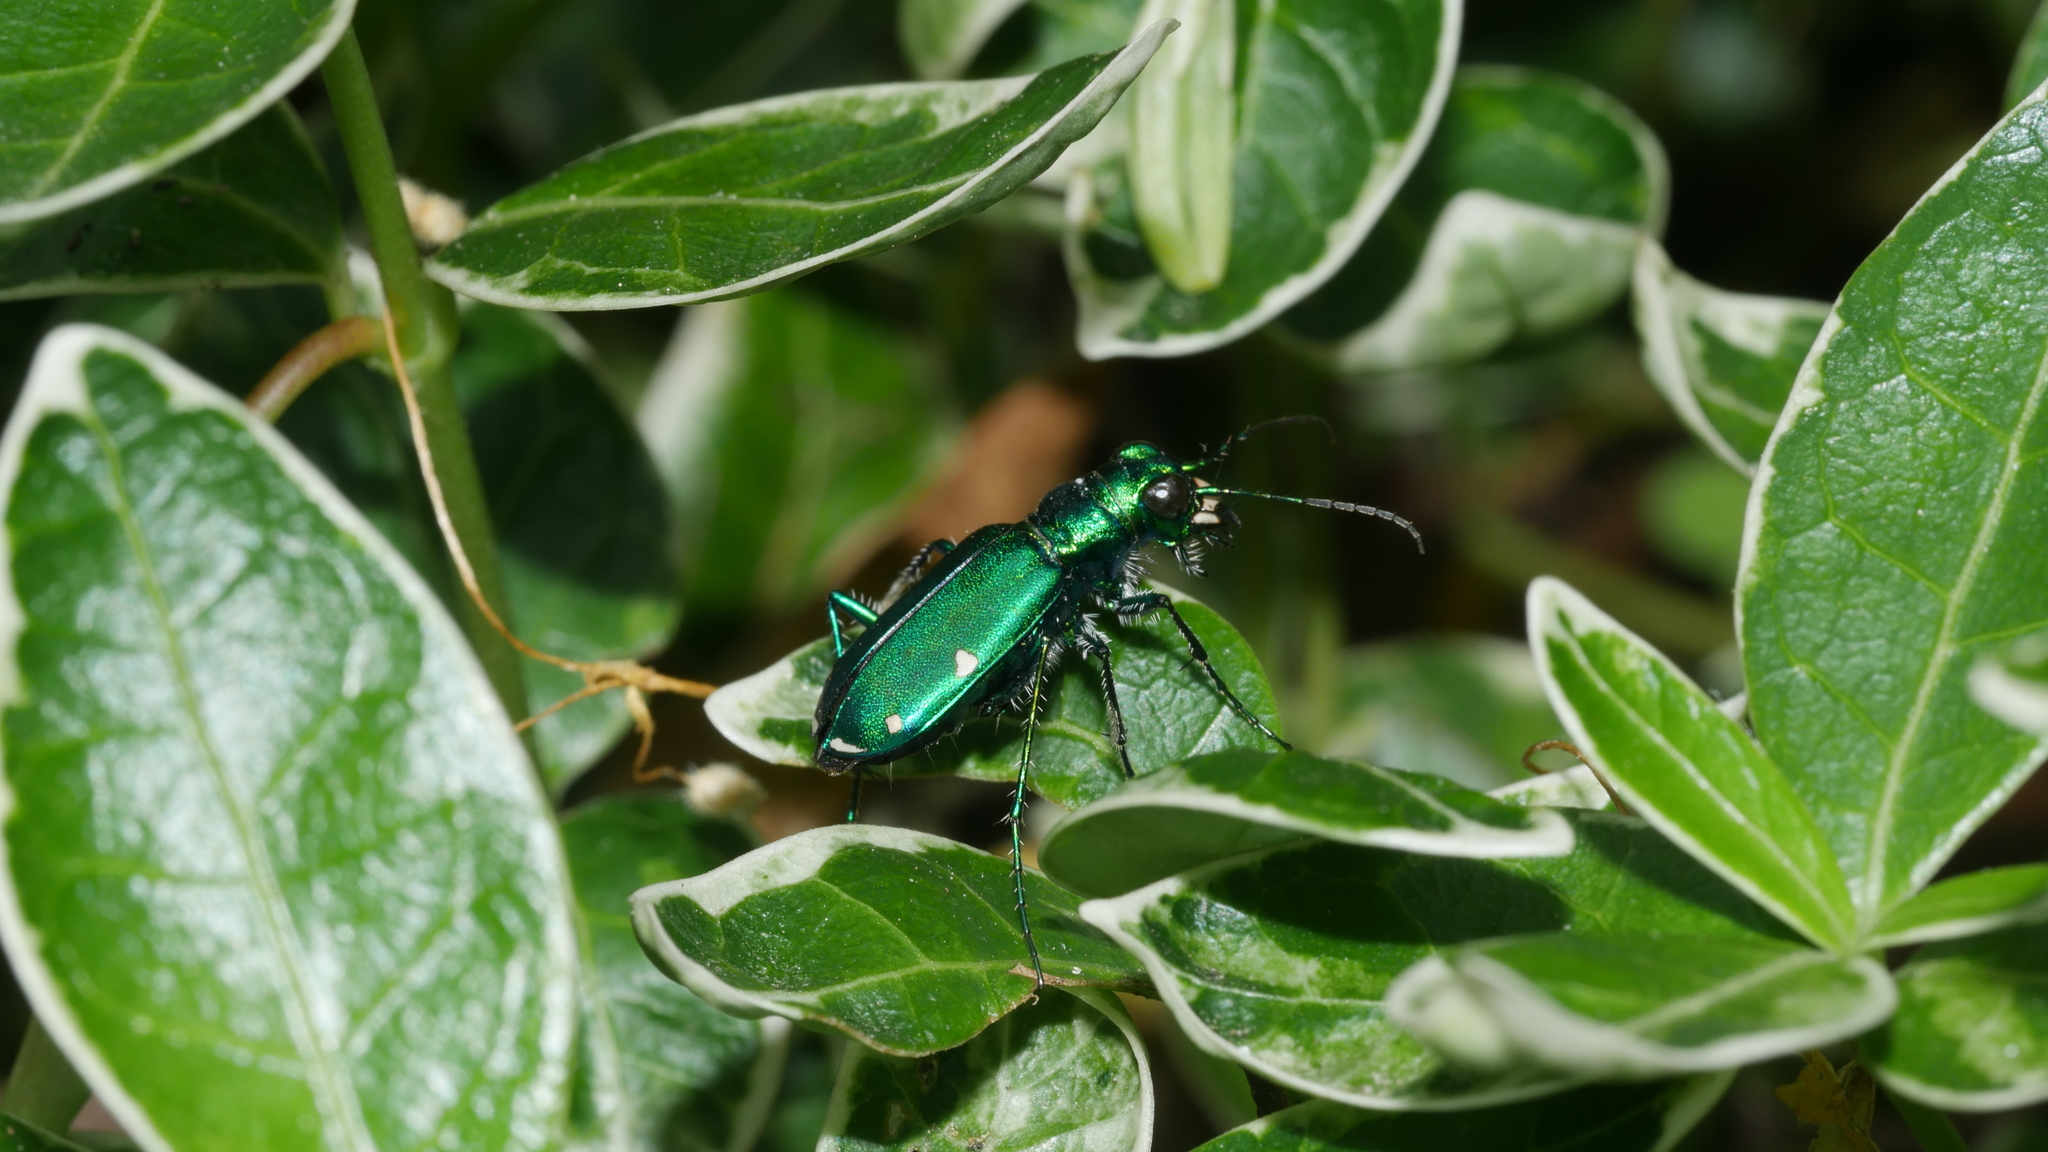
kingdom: Animalia
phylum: Arthropoda
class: Insecta
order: Coleoptera
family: Carabidae
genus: Cicindela
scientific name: Cicindela sexguttata
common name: Six-spotted tiger beetle
